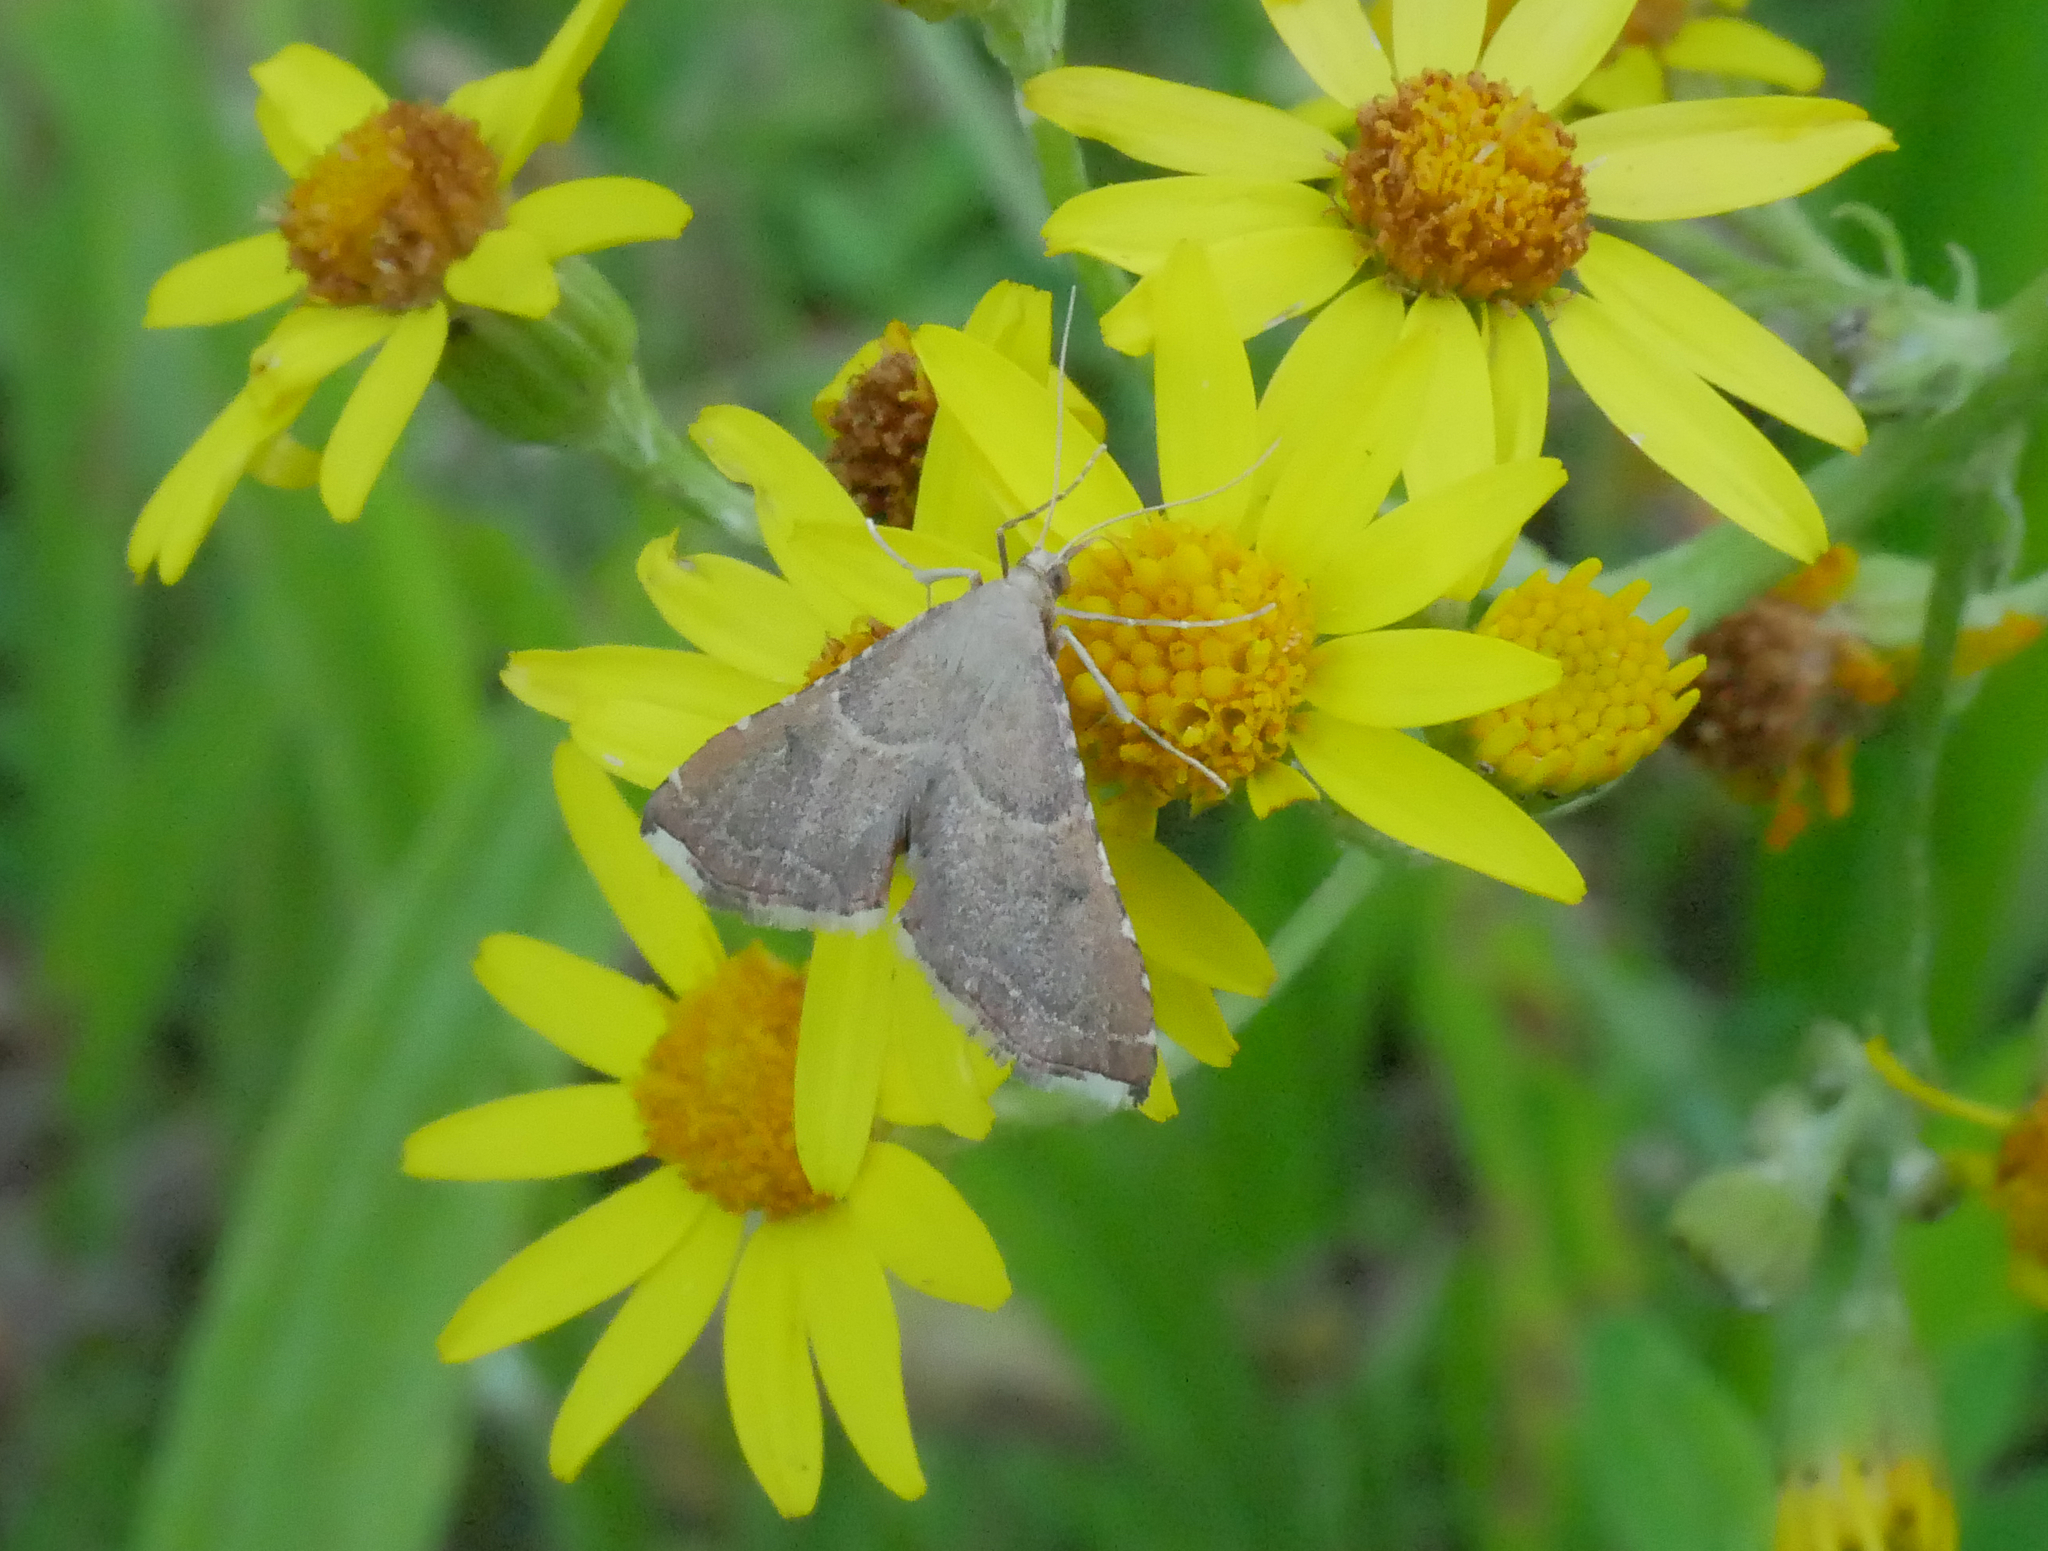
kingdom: Animalia
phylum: Arthropoda
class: Insecta
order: Lepidoptera
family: Pyralidae
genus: Endotricha
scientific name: Endotricha flammealis
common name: Rosy tabby
